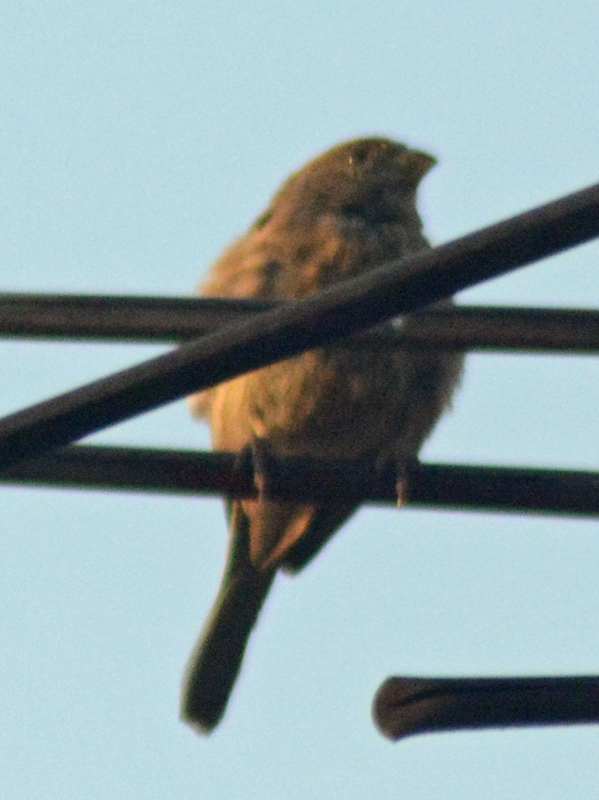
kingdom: Animalia
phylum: Chordata
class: Aves
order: Passeriformes
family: Passeridae
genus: Passer
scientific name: Passer domesticus
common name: House sparrow
